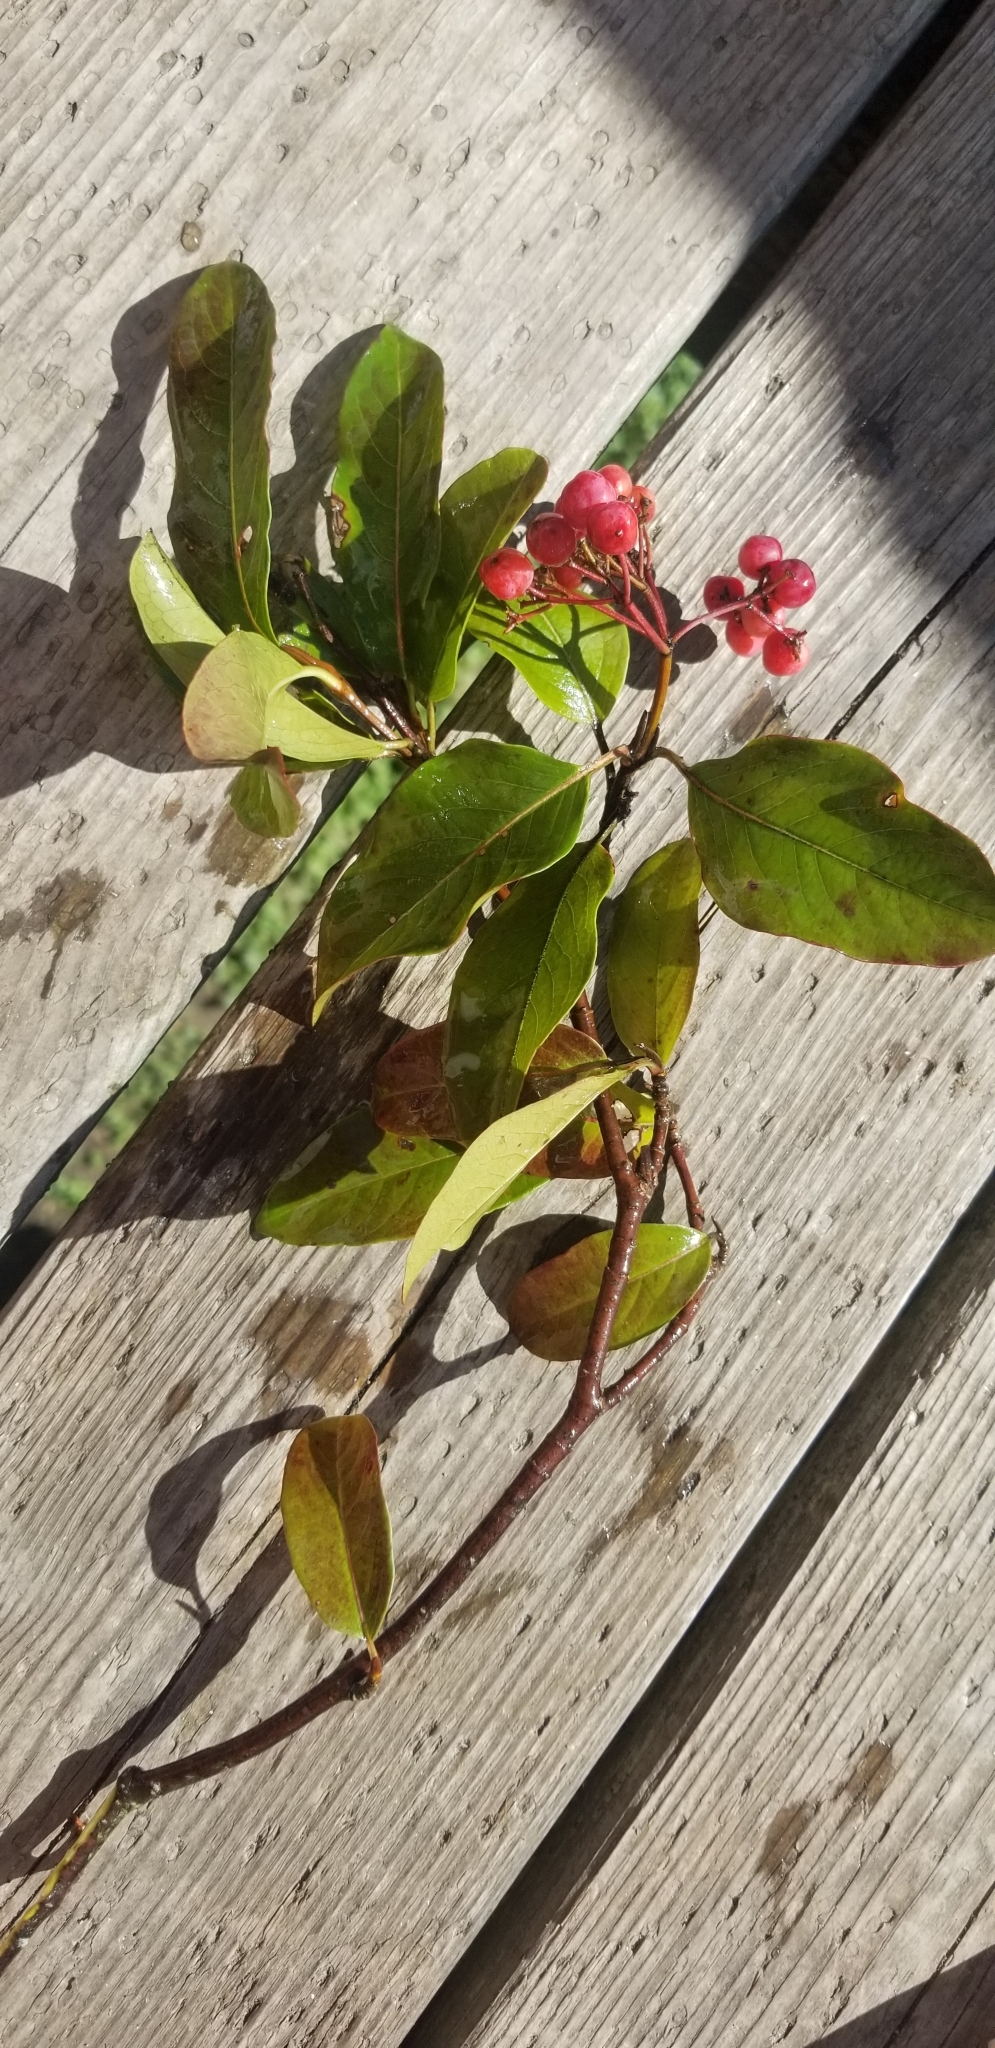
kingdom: Plantae
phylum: Tracheophyta
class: Magnoliopsida
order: Dipsacales
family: Viburnaceae
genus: Viburnum
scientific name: Viburnum cassinoides
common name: Swamp haw
